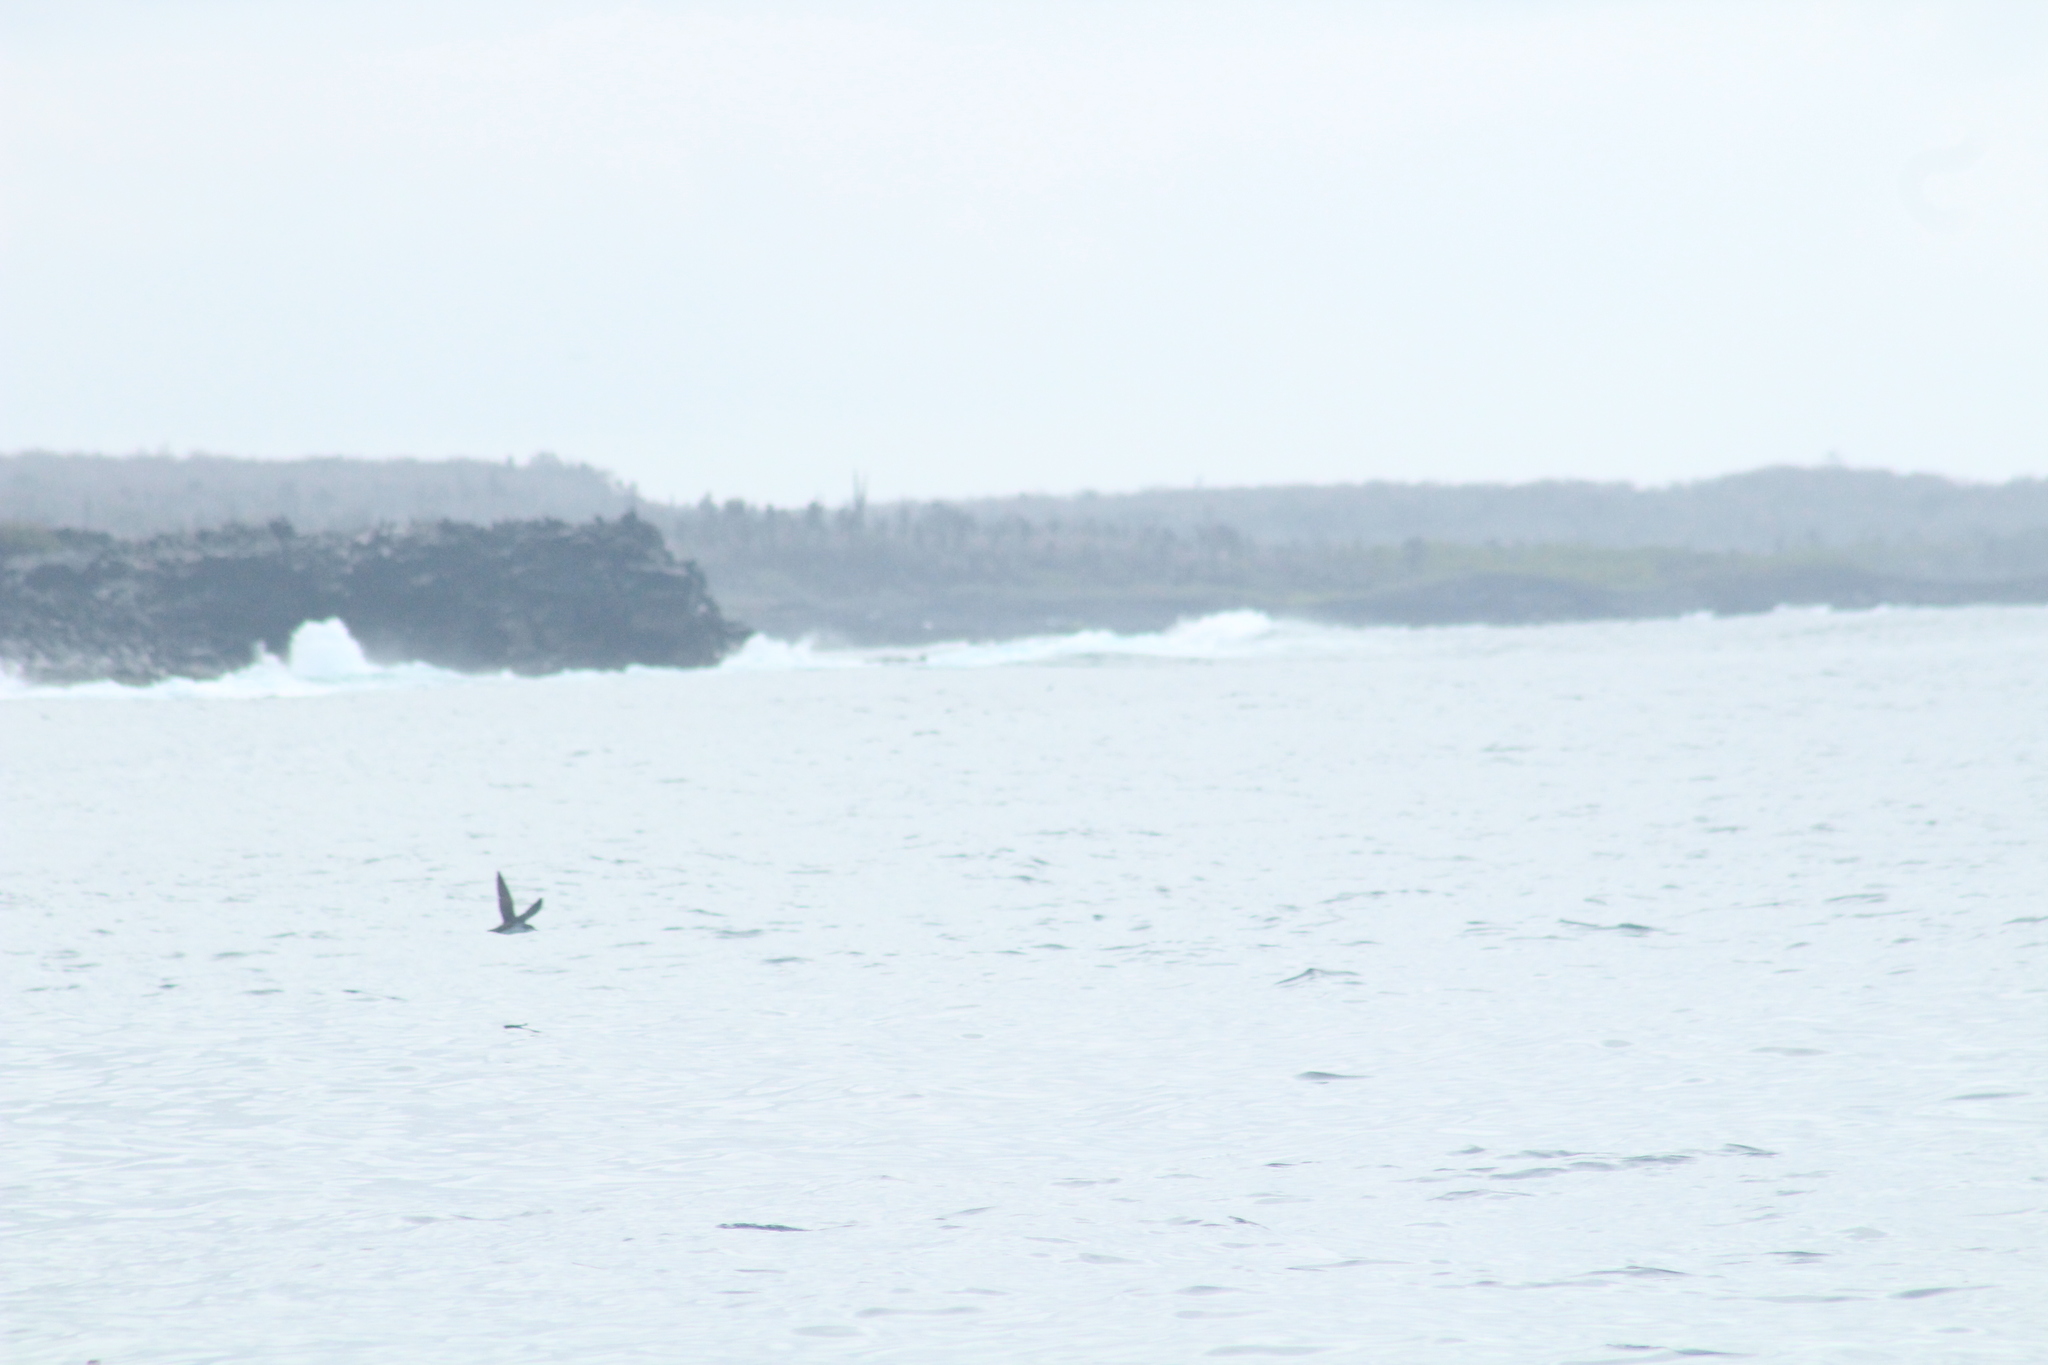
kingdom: Animalia
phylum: Chordata
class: Aves
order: Procellariiformes
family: Procellariidae
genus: Puffinus
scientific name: Puffinus subalaris
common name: Galapagos shearwater
